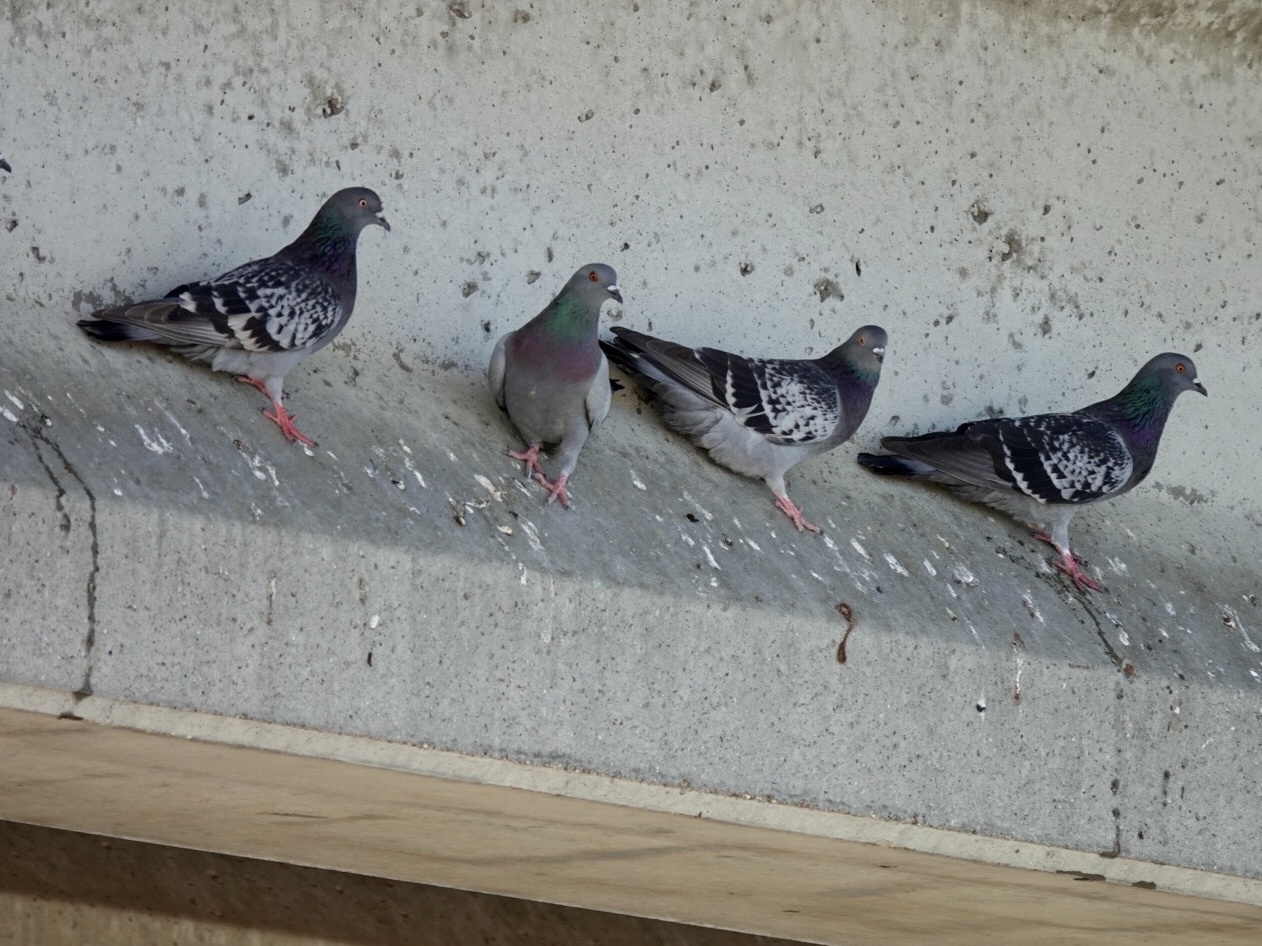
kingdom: Animalia
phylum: Chordata
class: Aves
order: Columbiformes
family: Columbidae
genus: Columba
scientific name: Columba livia
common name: Rock pigeon
